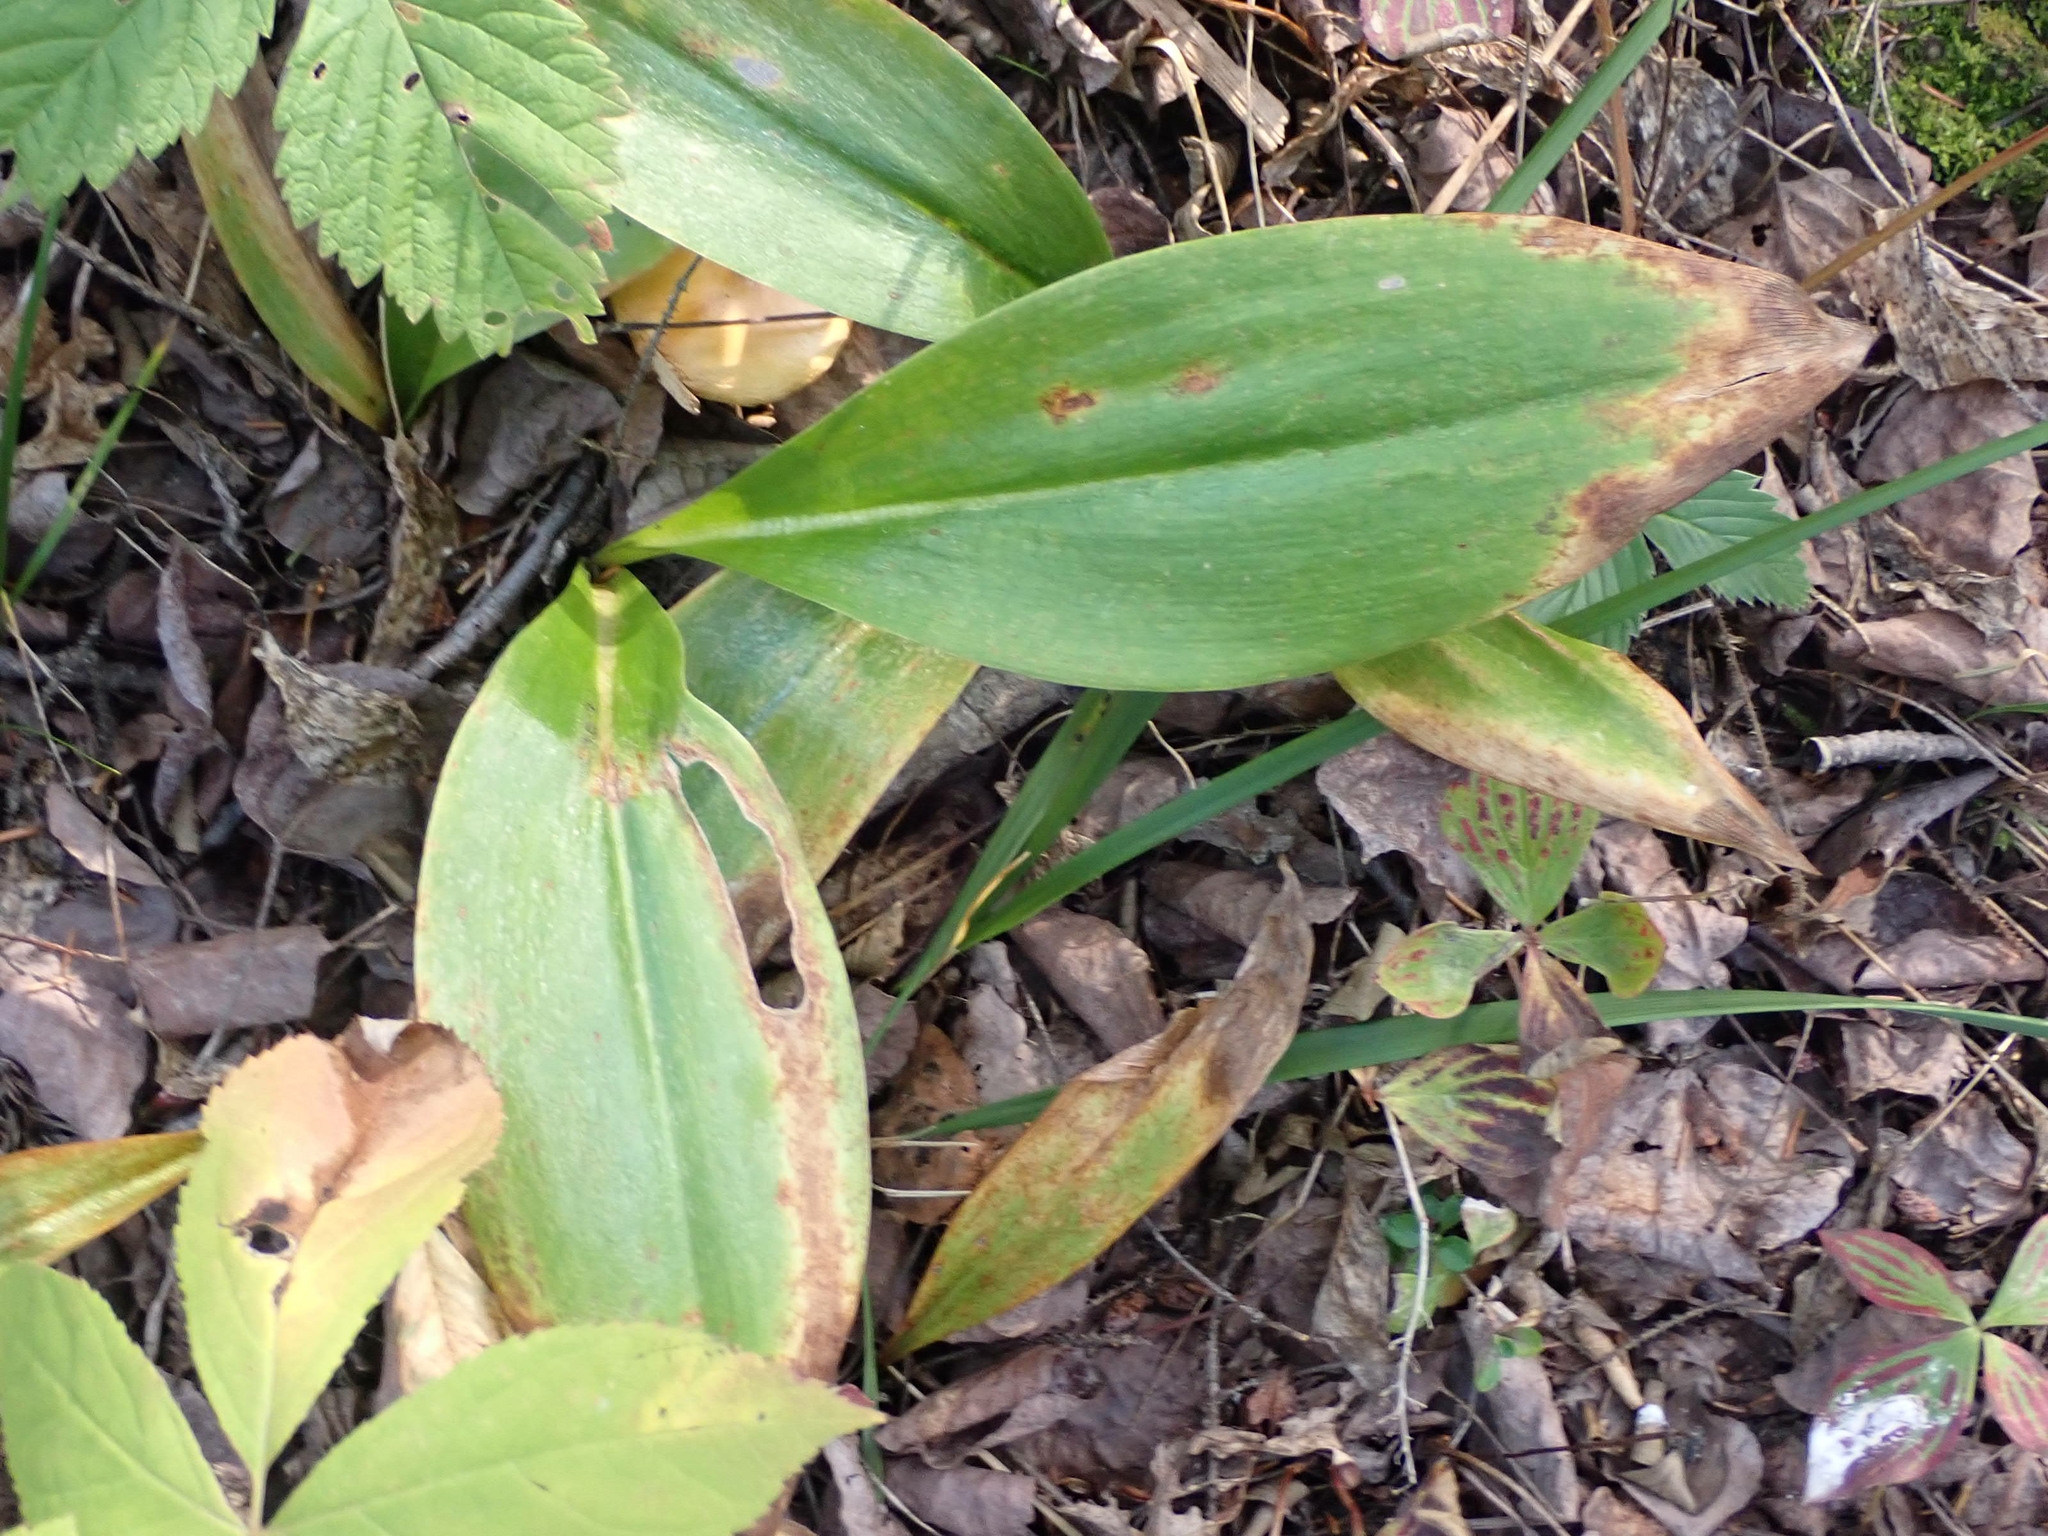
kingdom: Plantae
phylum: Tracheophyta
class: Liliopsida
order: Liliales
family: Liliaceae
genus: Clintonia
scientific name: Clintonia borealis
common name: Yellow clintonia
